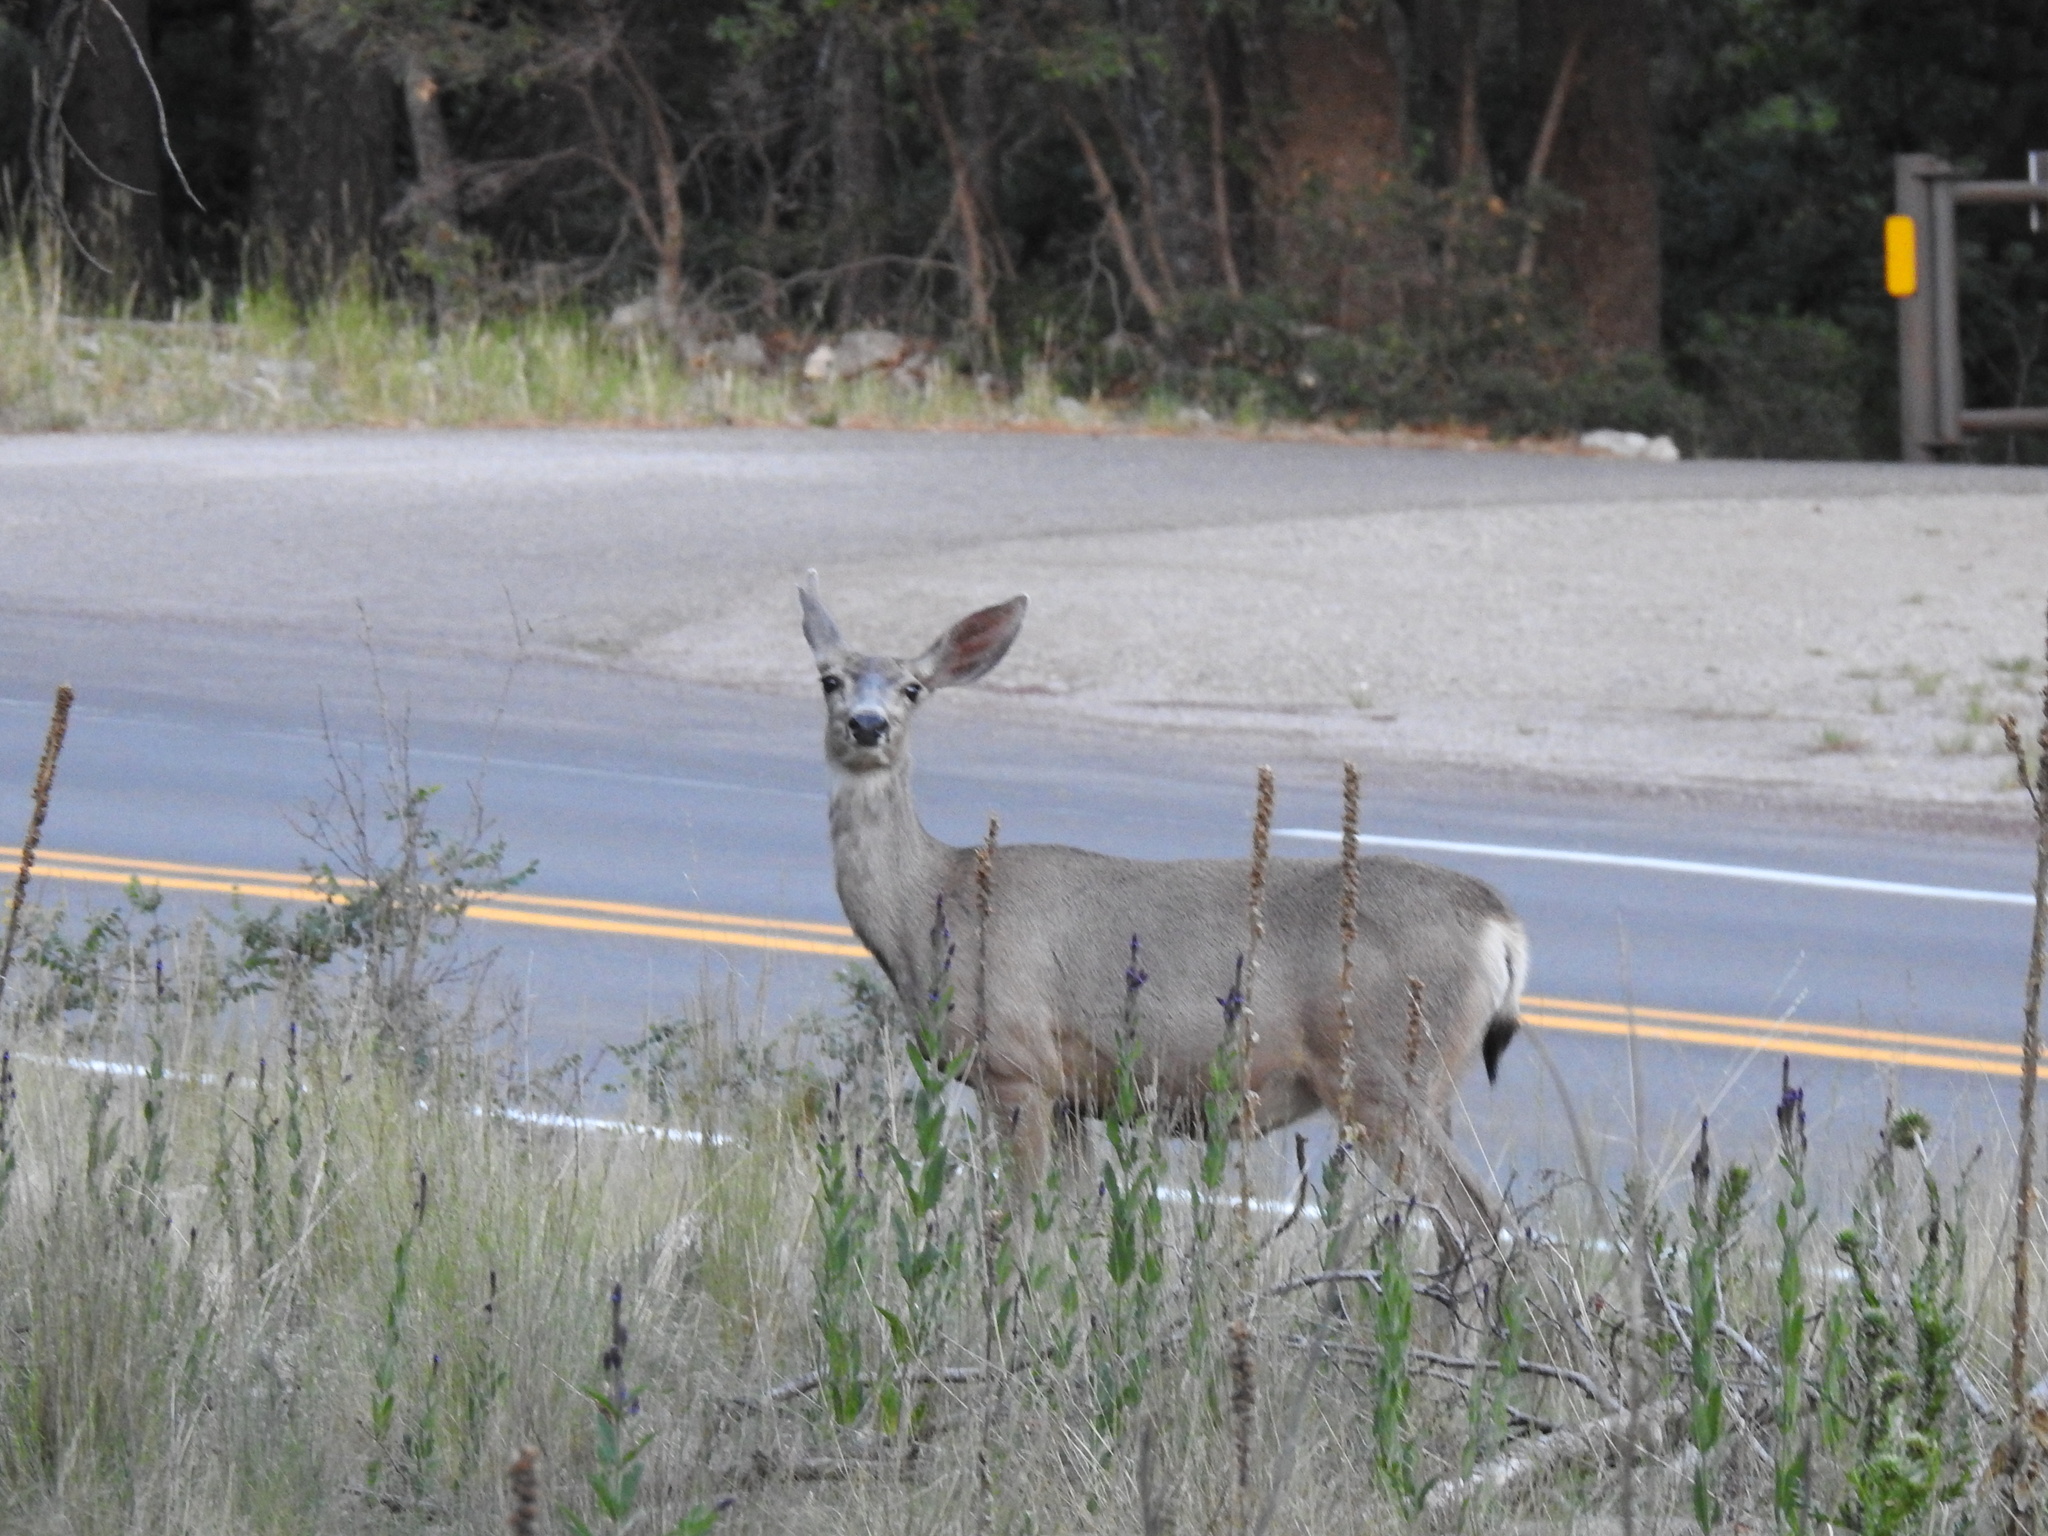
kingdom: Animalia
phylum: Chordata
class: Mammalia
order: Artiodactyla
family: Cervidae
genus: Odocoileus
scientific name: Odocoileus hemionus
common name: Mule deer
